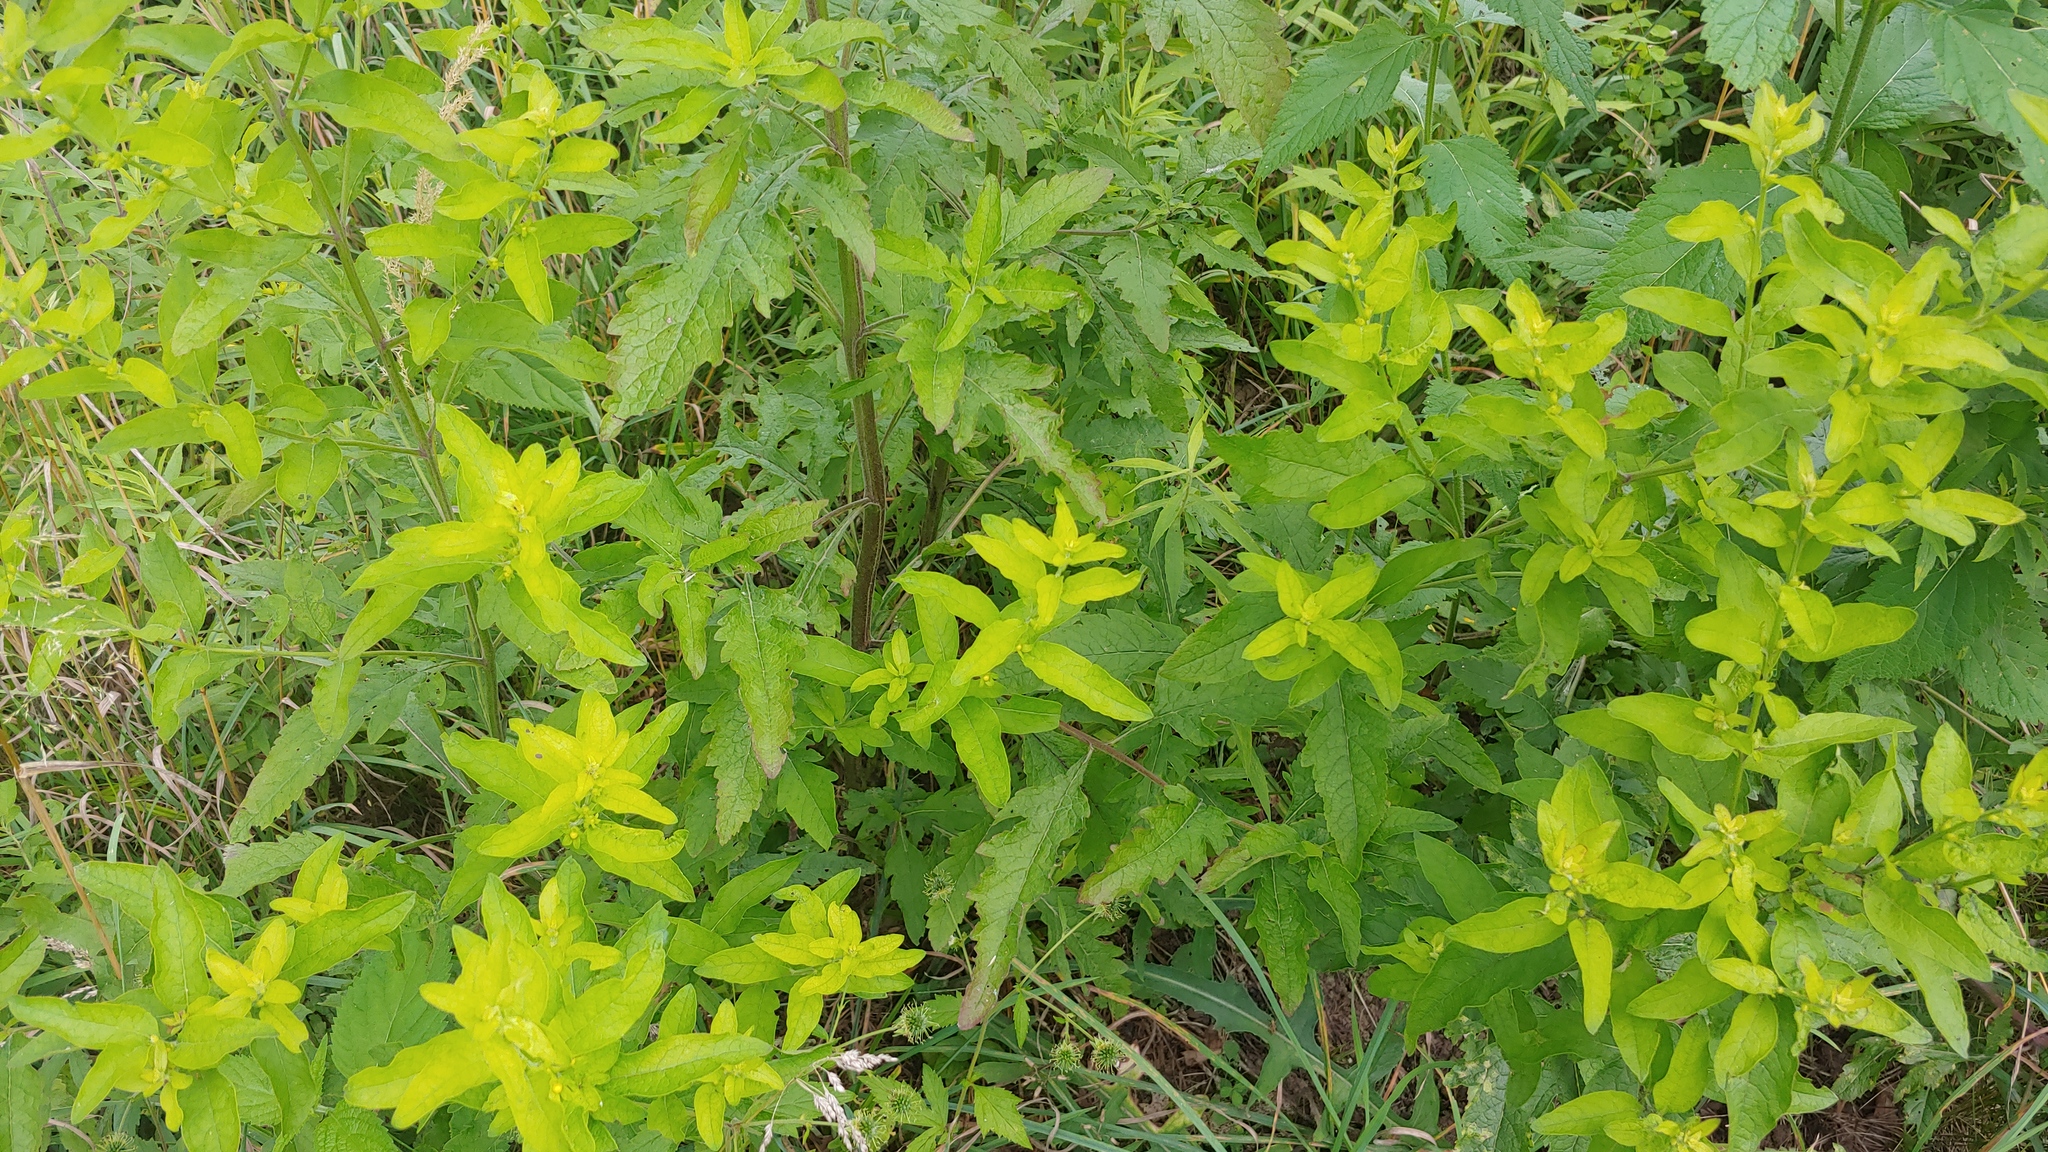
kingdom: Plantae
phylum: Tracheophyta
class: Magnoliopsida
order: Lamiales
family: Orobanchaceae
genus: Dasistoma
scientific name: Dasistoma macrophyllum
